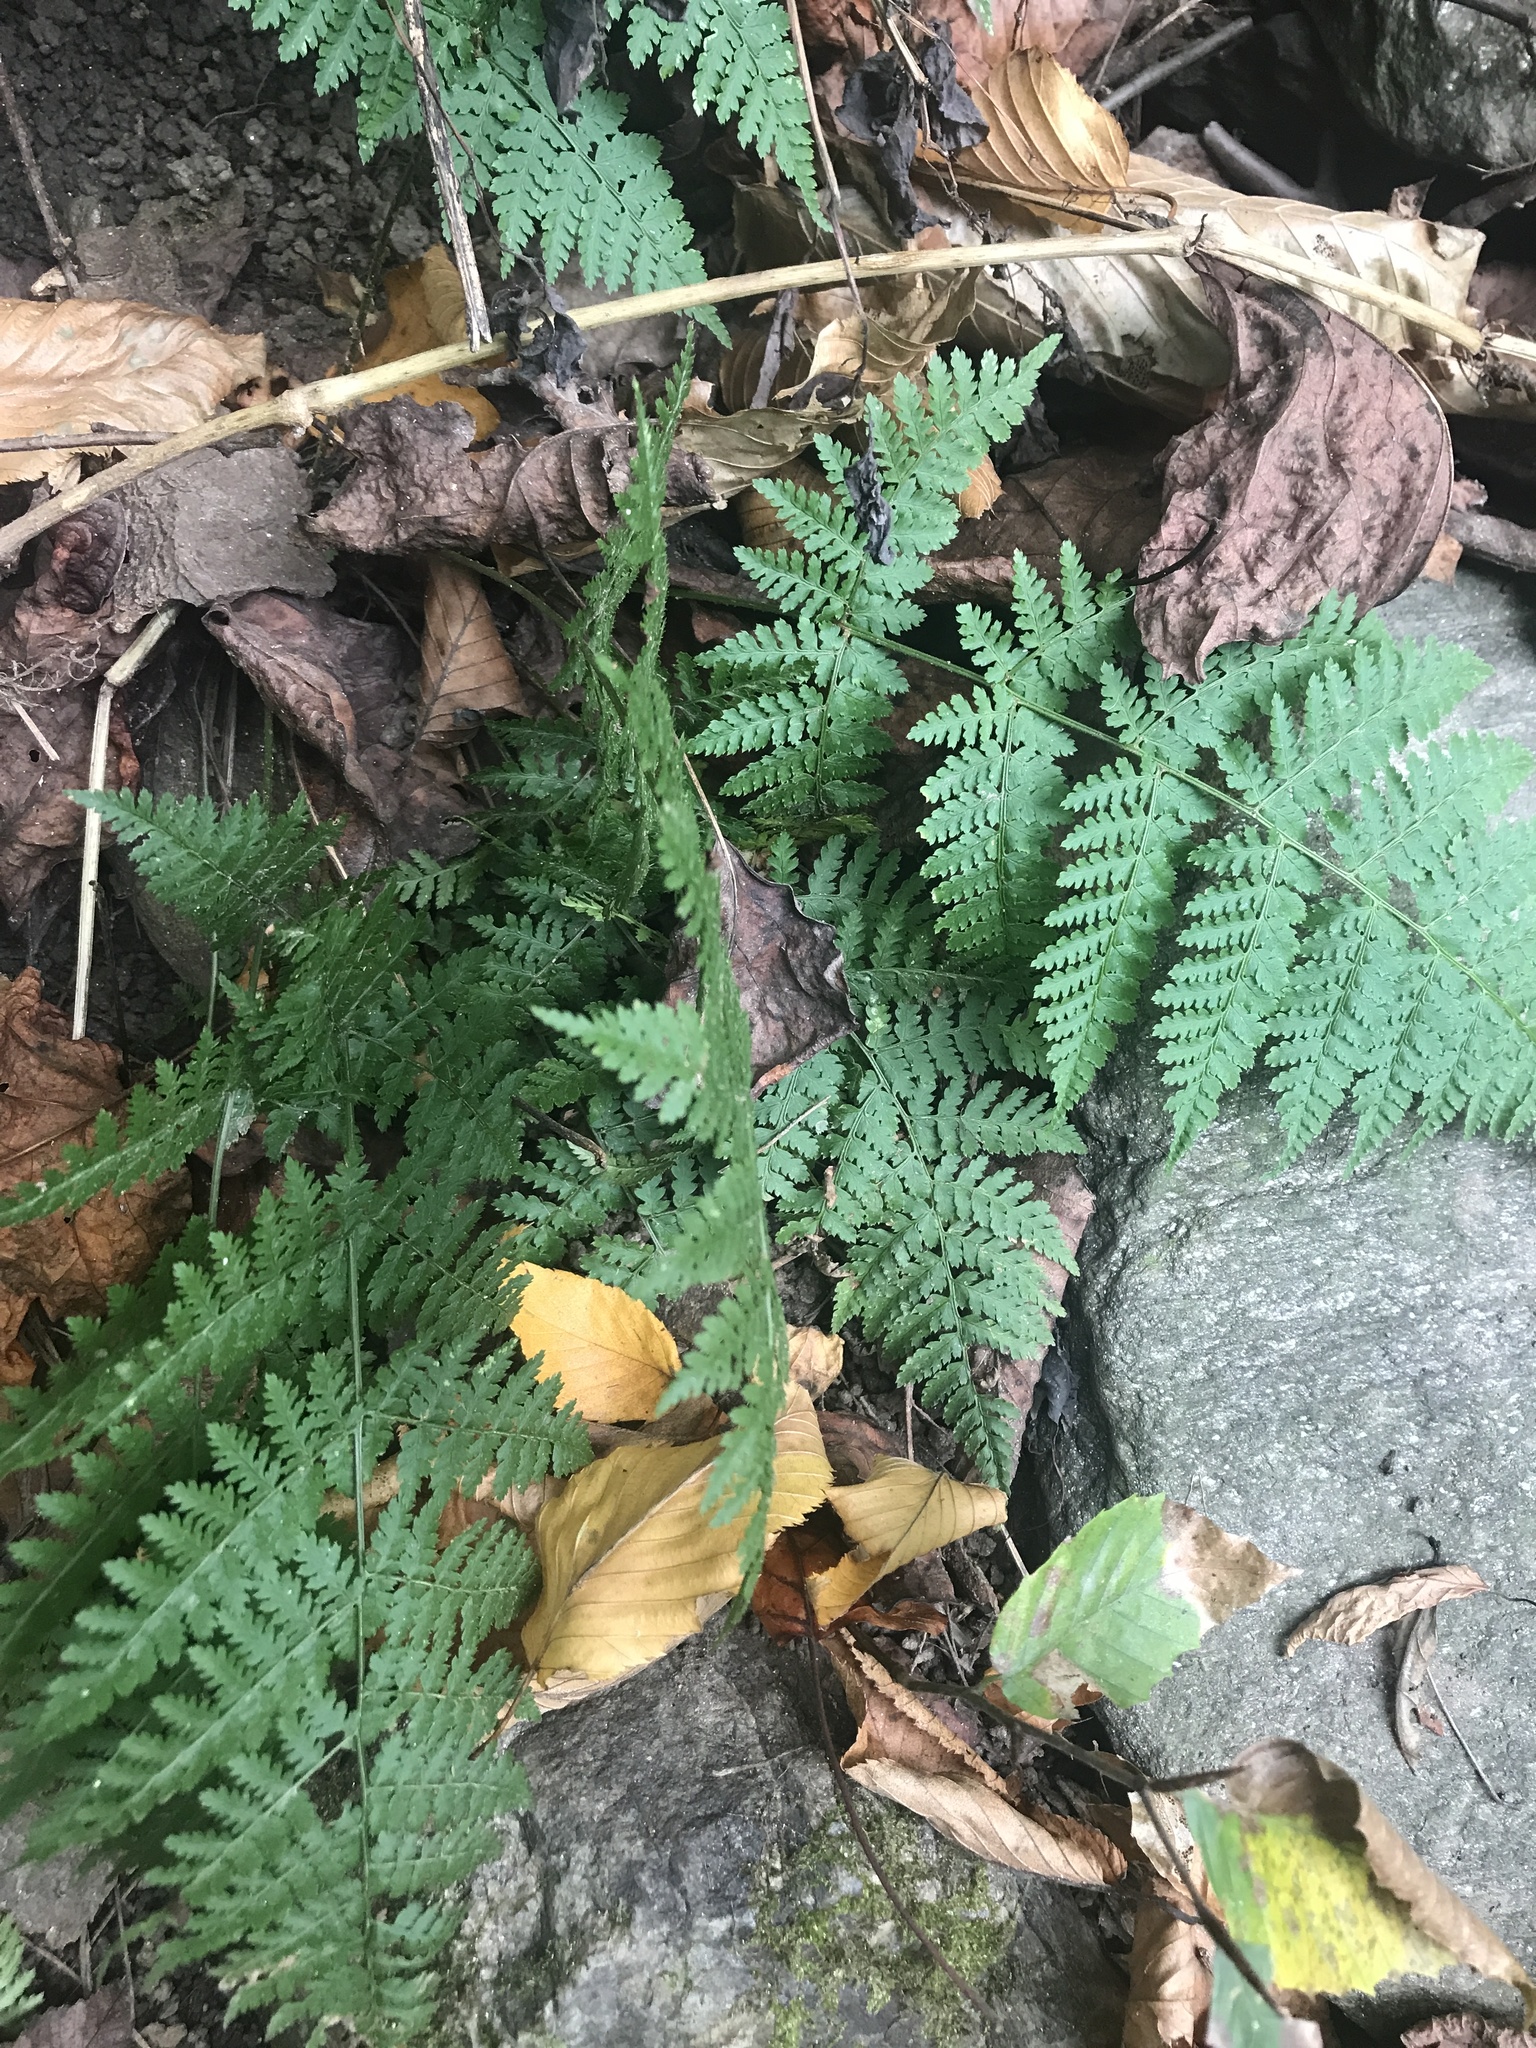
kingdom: Plantae
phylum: Tracheophyta
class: Polypodiopsida
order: Polypodiales
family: Dryopteridaceae
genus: Dryopteris
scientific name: Dryopteris intermedia
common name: Evergreen wood fern
